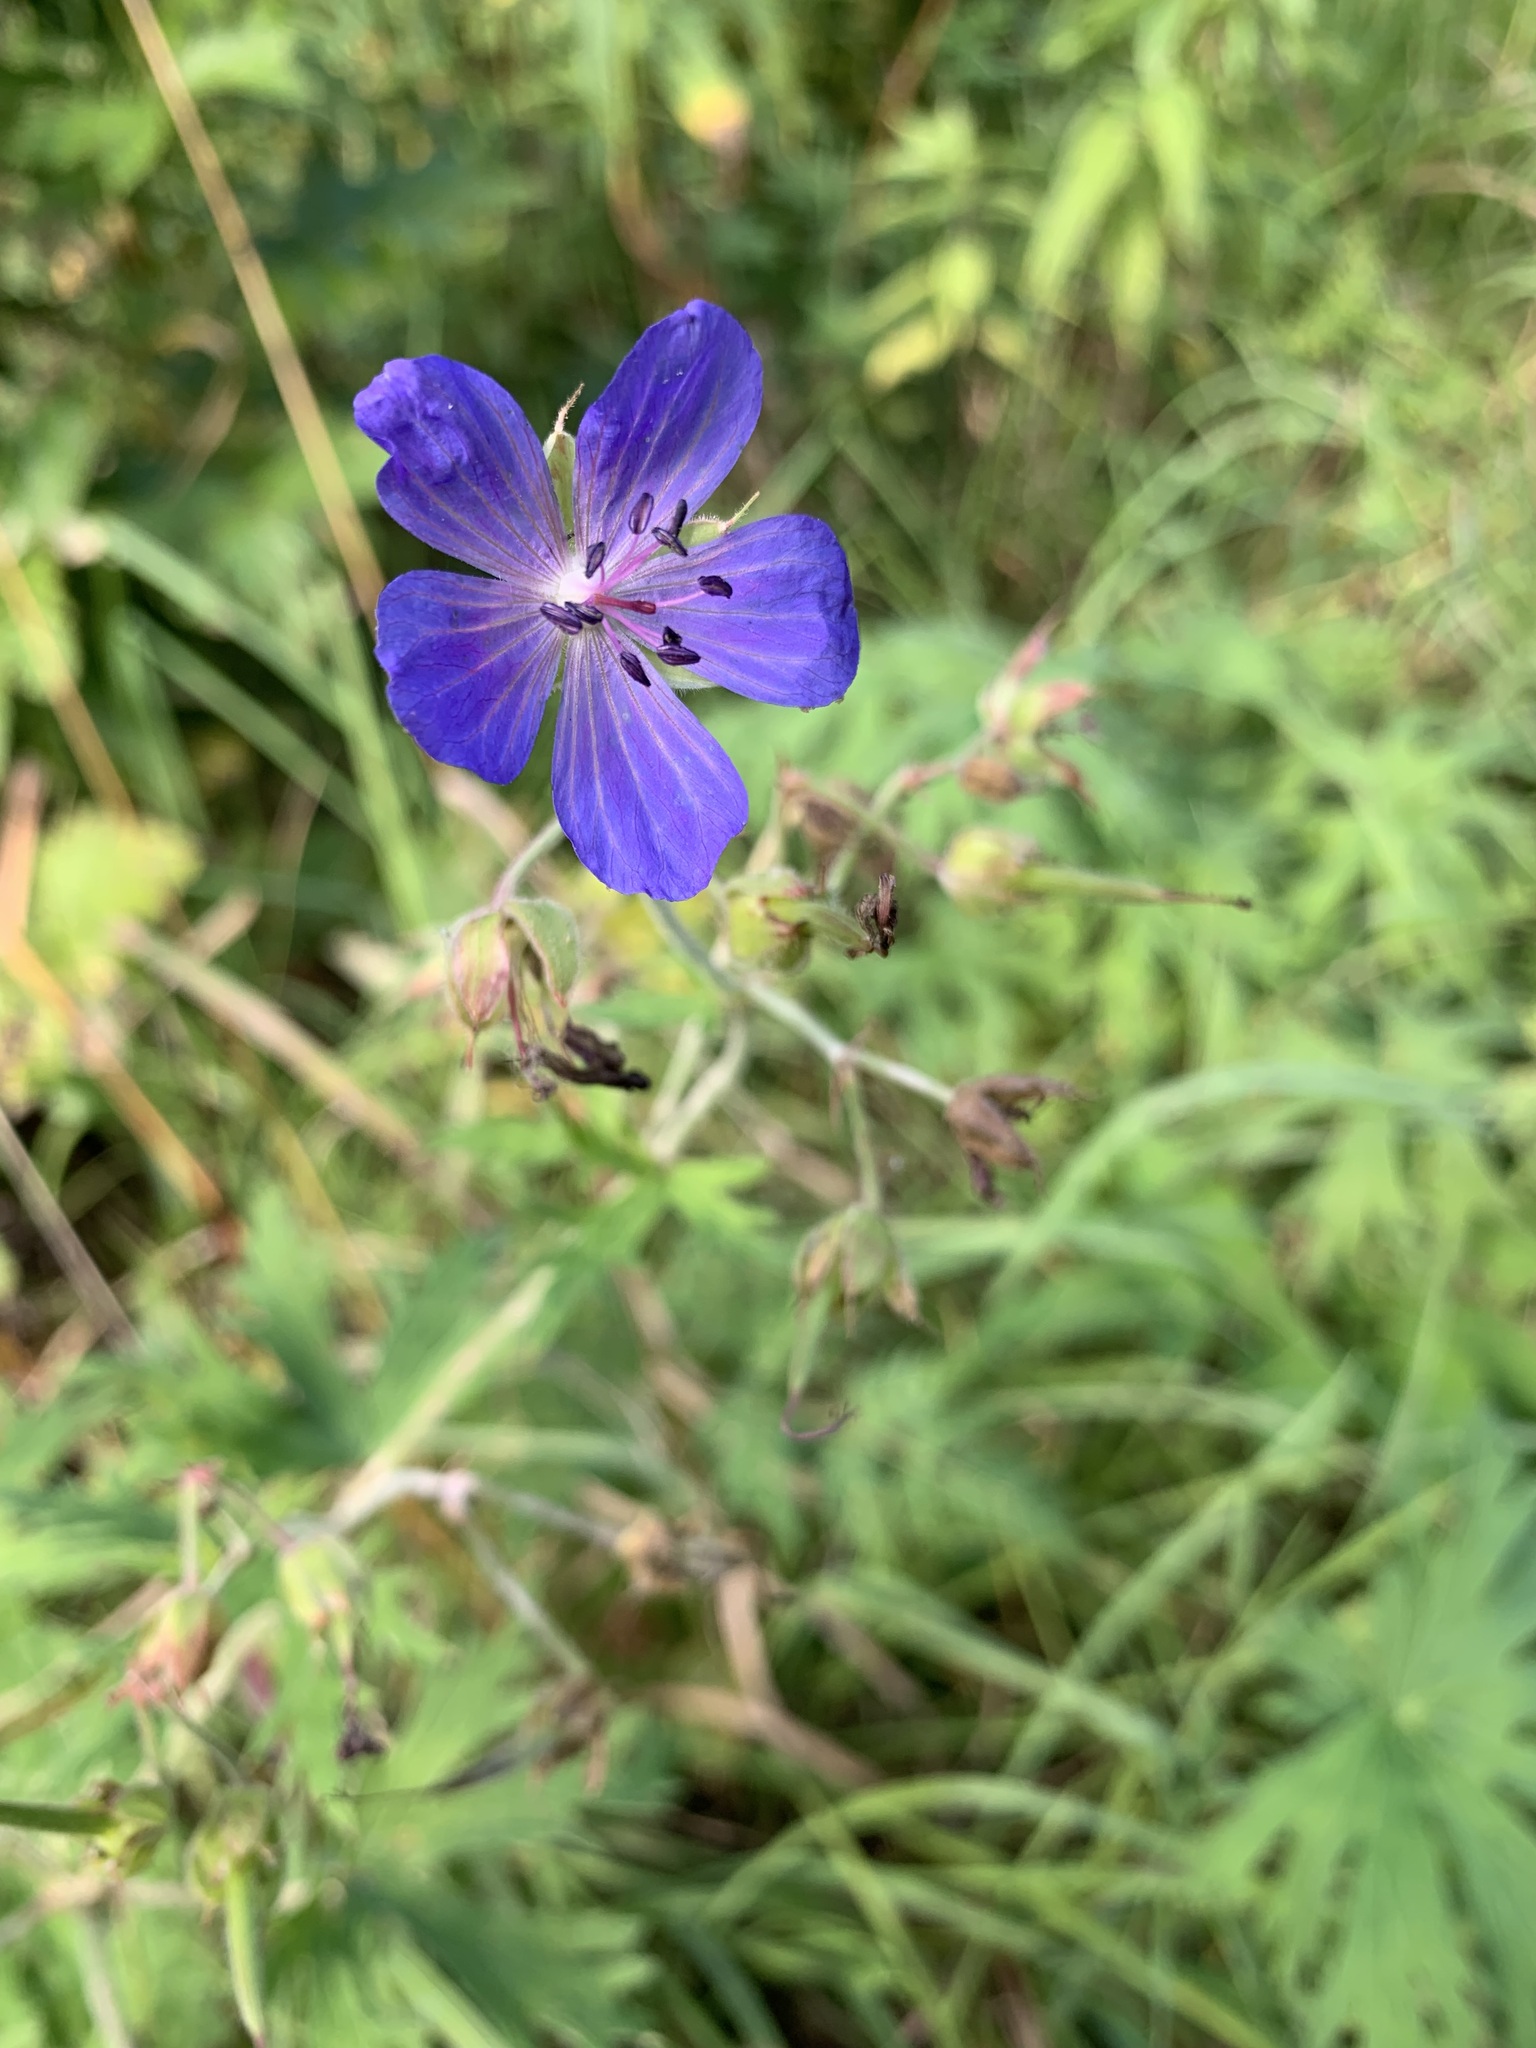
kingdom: Plantae
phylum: Tracheophyta
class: Magnoliopsida
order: Geraniales
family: Geraniaceae
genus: Geranium
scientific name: Geranium pratense
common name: Meadow crane's-bill
